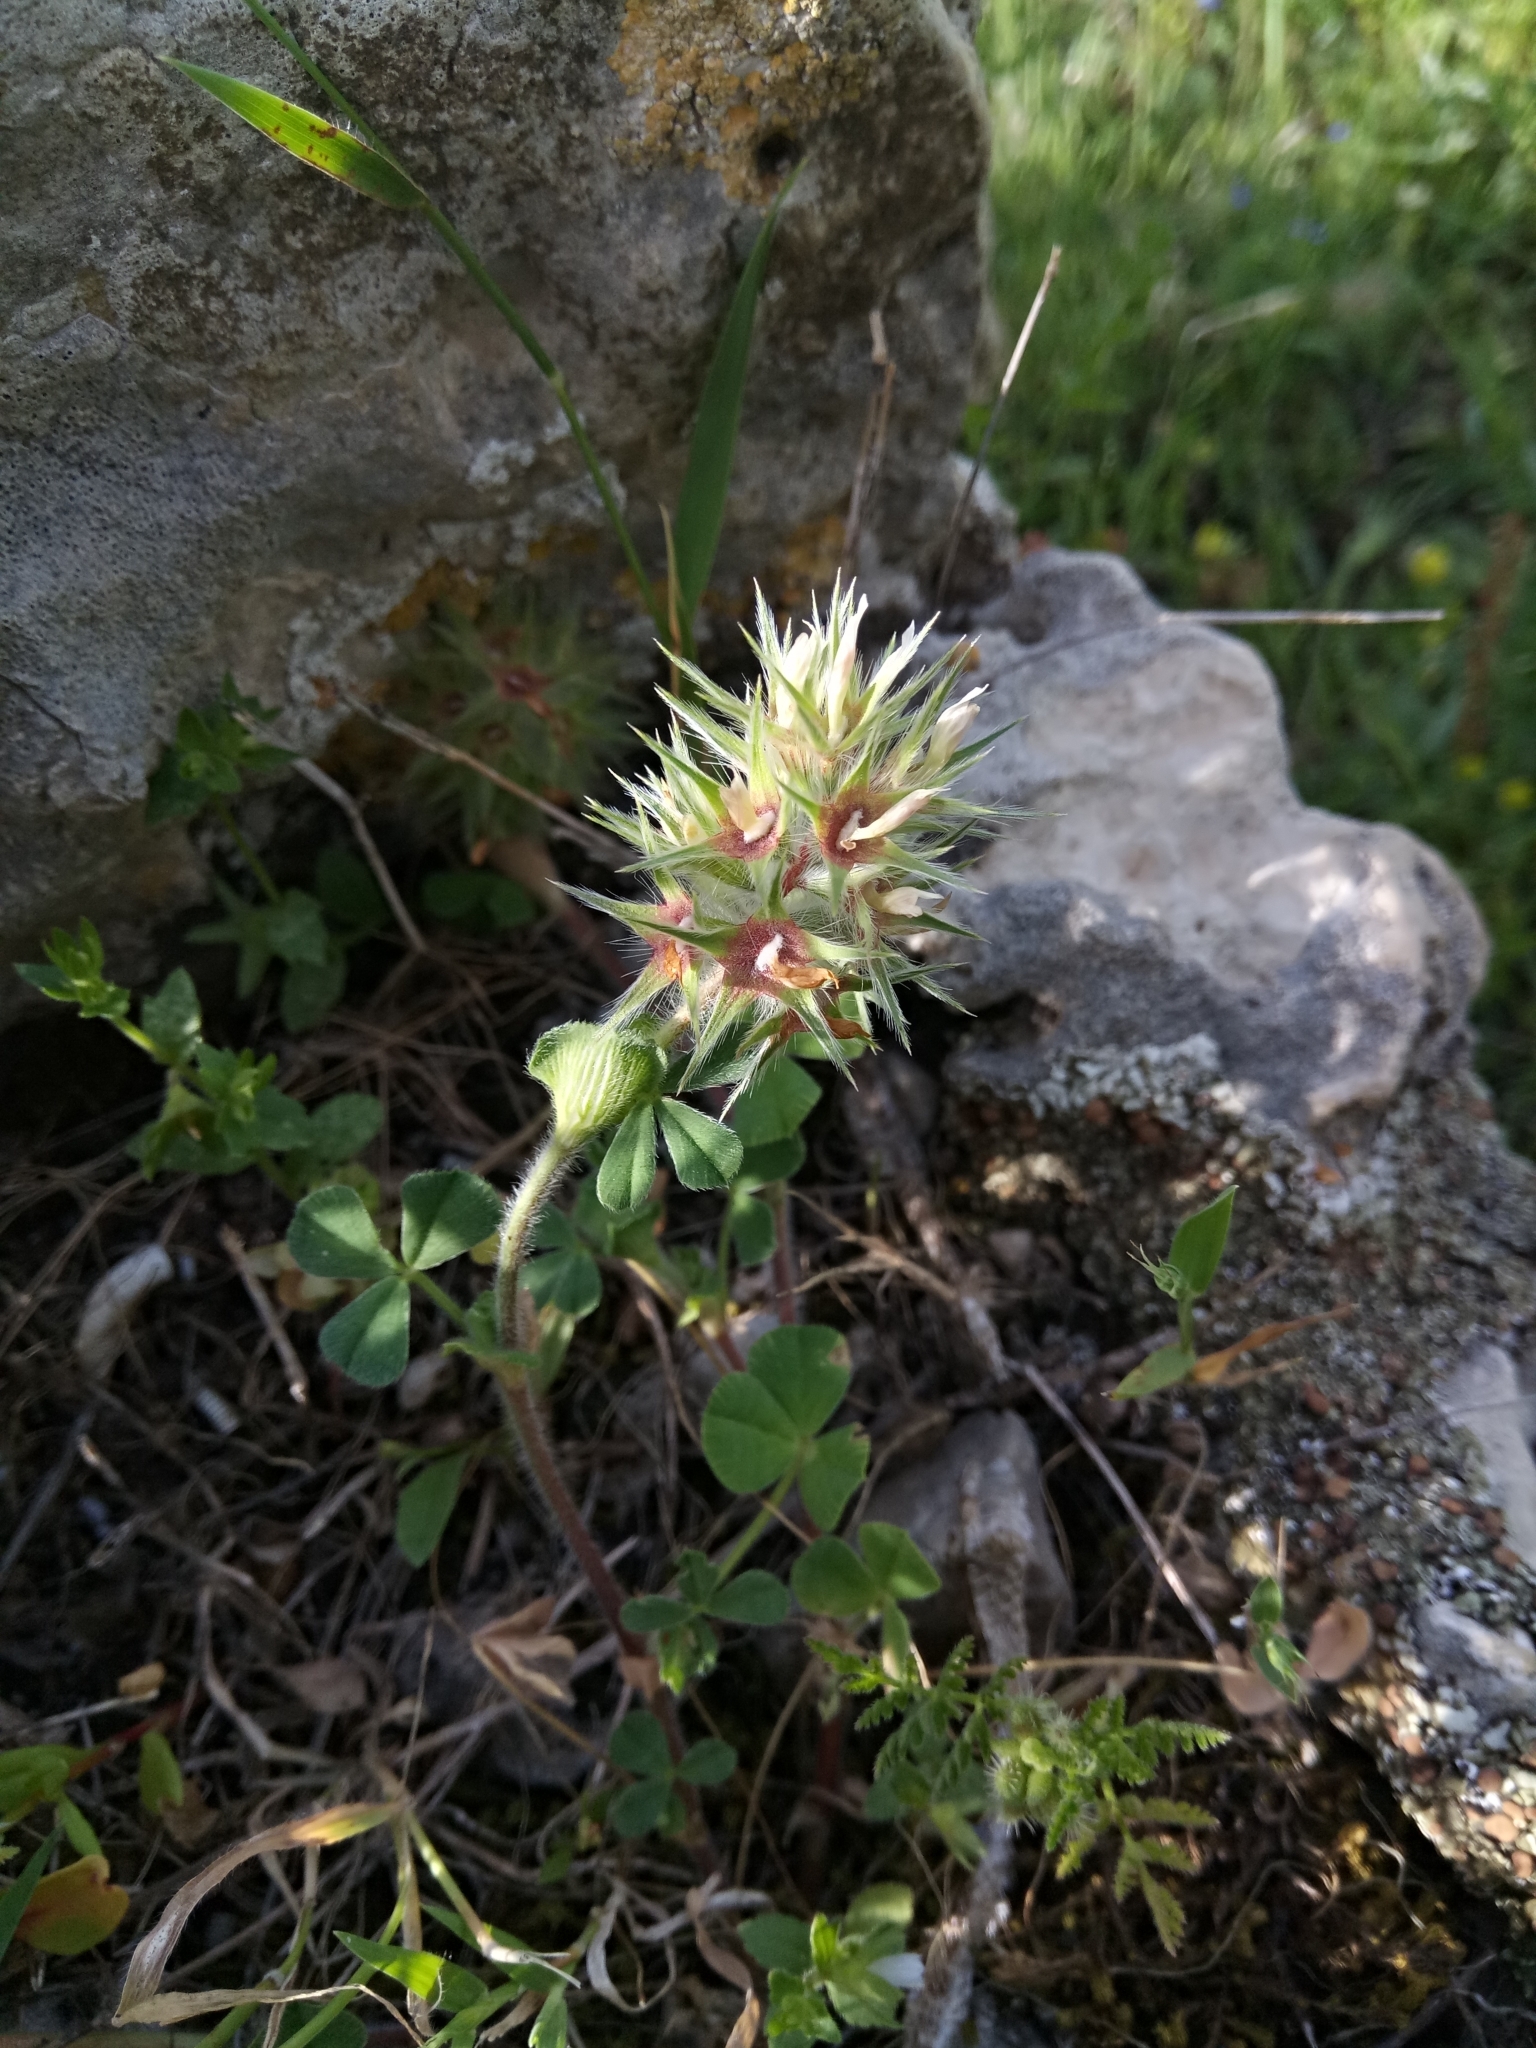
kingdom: Plantae
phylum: Tracheophyta
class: Magnoliopsida
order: Fabales
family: Fabaceae
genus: Trifolium
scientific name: Trifolium stellatum
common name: Starry clover
